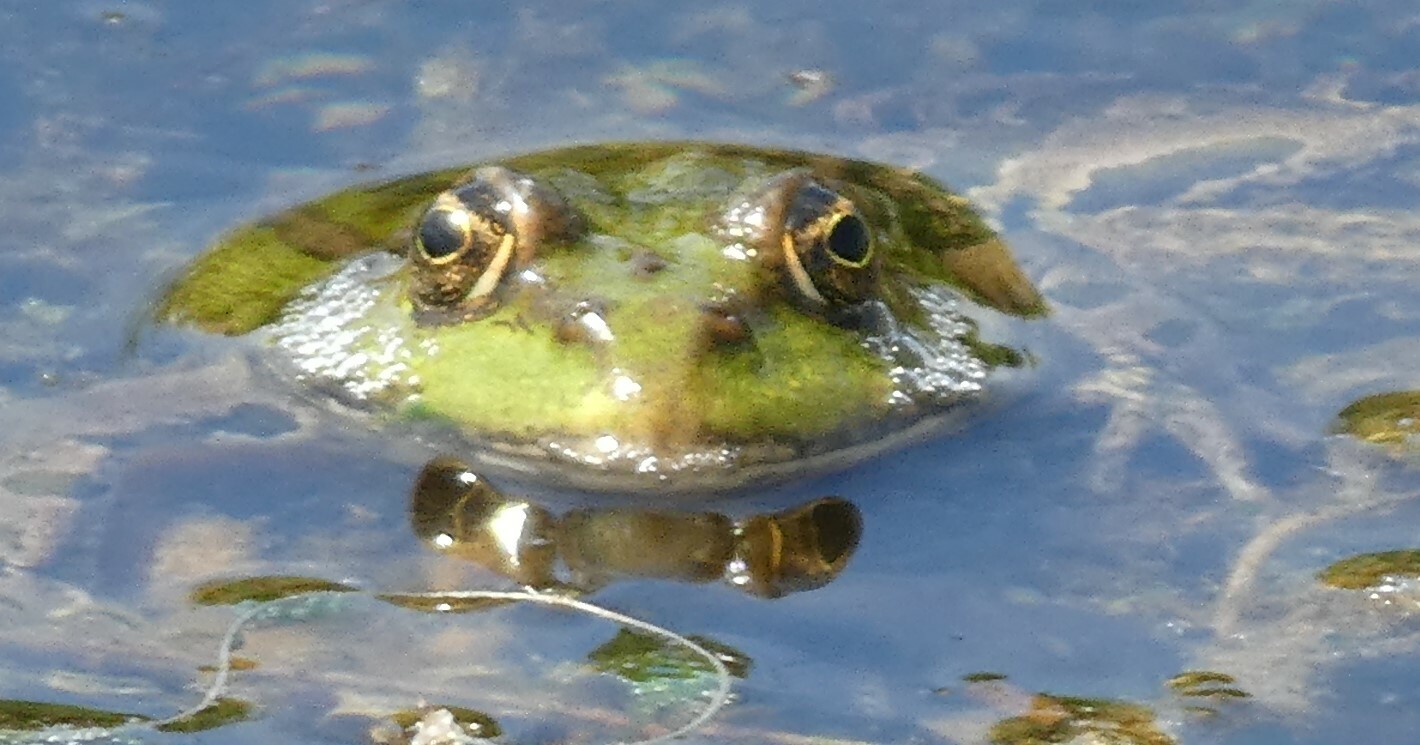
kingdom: Animalia
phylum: Chordata
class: Amphibia
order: Anura
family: Ranidae
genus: Pelophylax
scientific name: Pelophylax ridibundus
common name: Marsh frog
